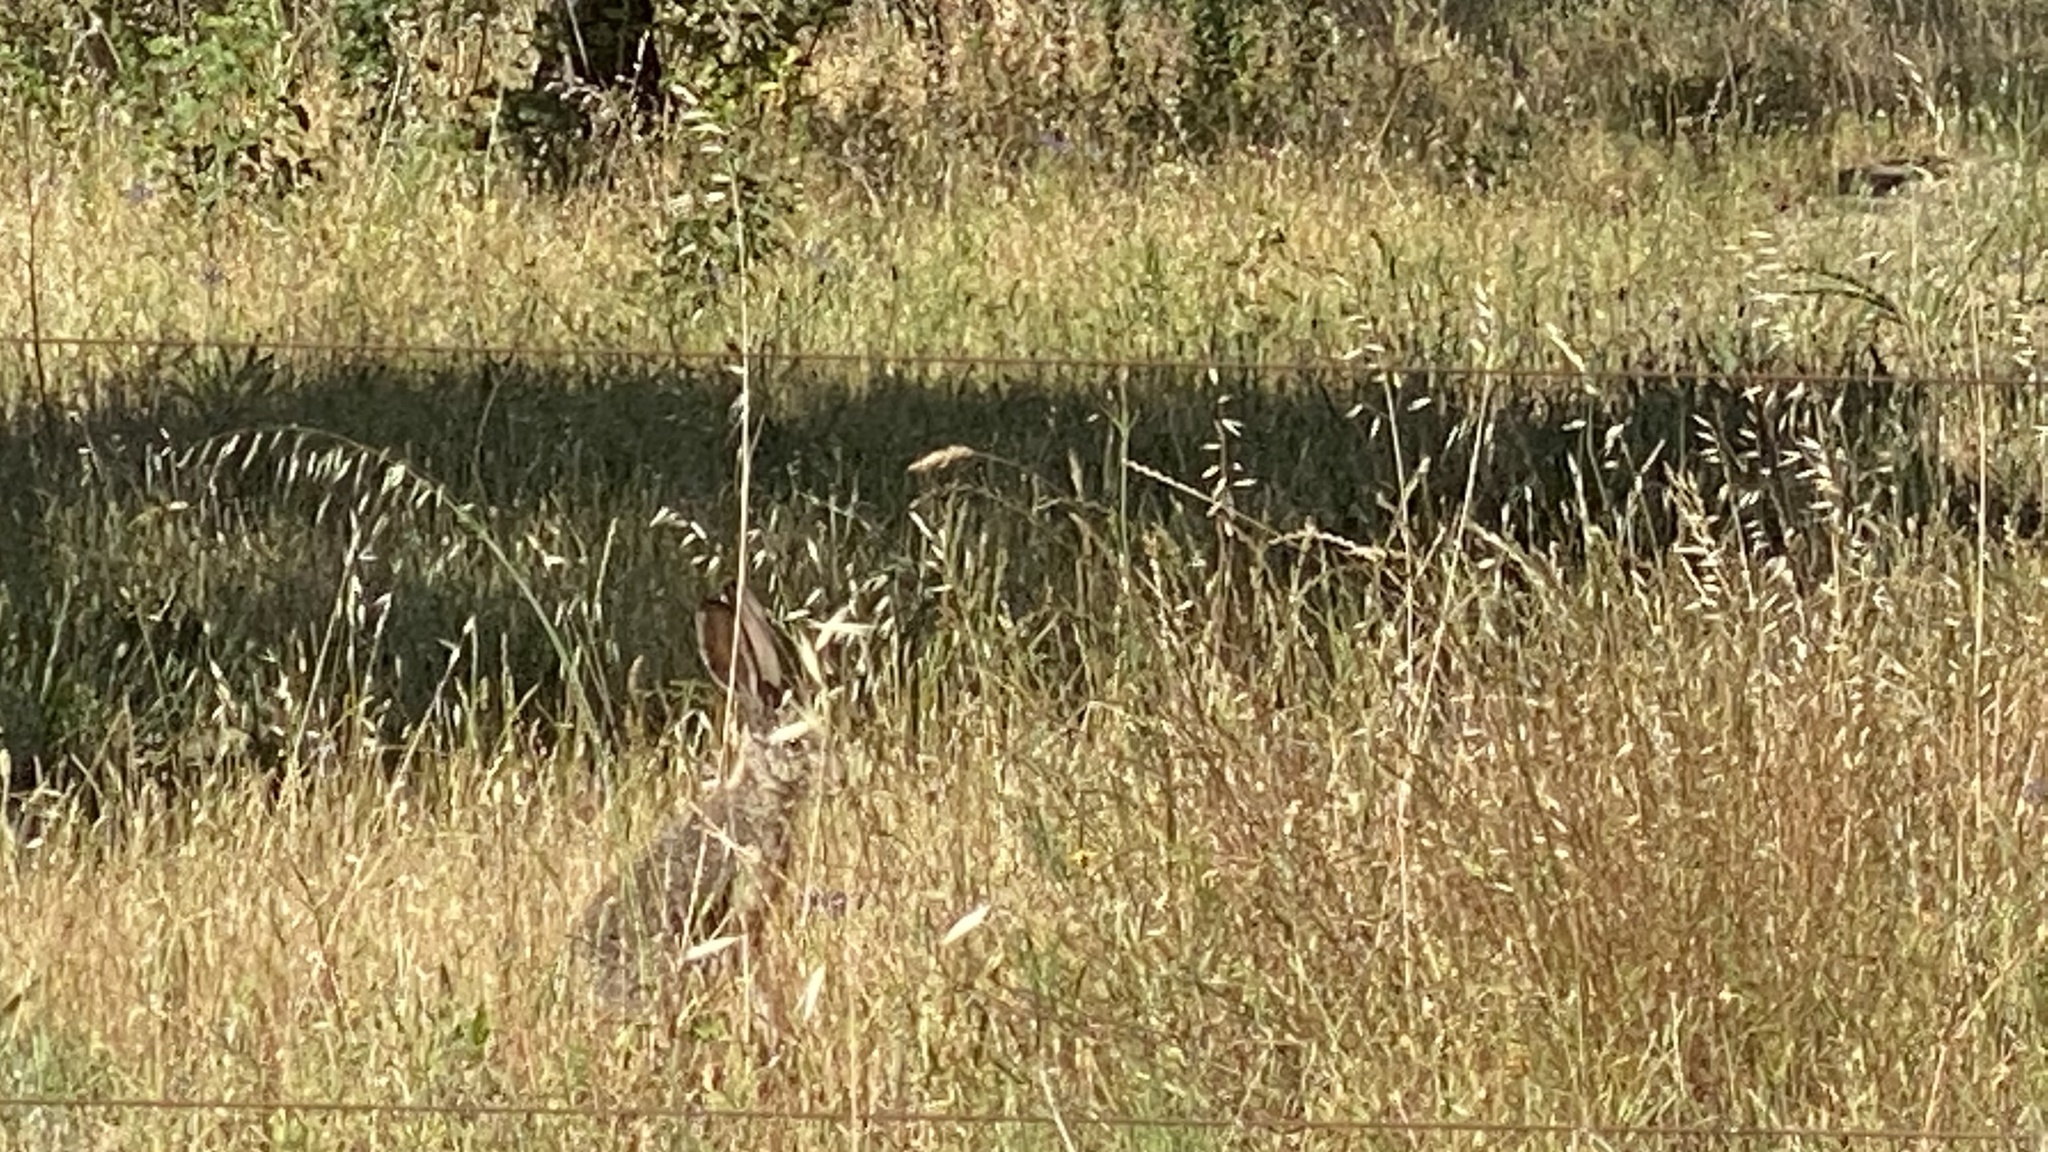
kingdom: Animalia
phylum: Chordata
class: Mammalia
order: Lagomorpha
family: Leporidae
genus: Lepus
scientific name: Lepus californicus
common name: Black-tailed jackrabbit
